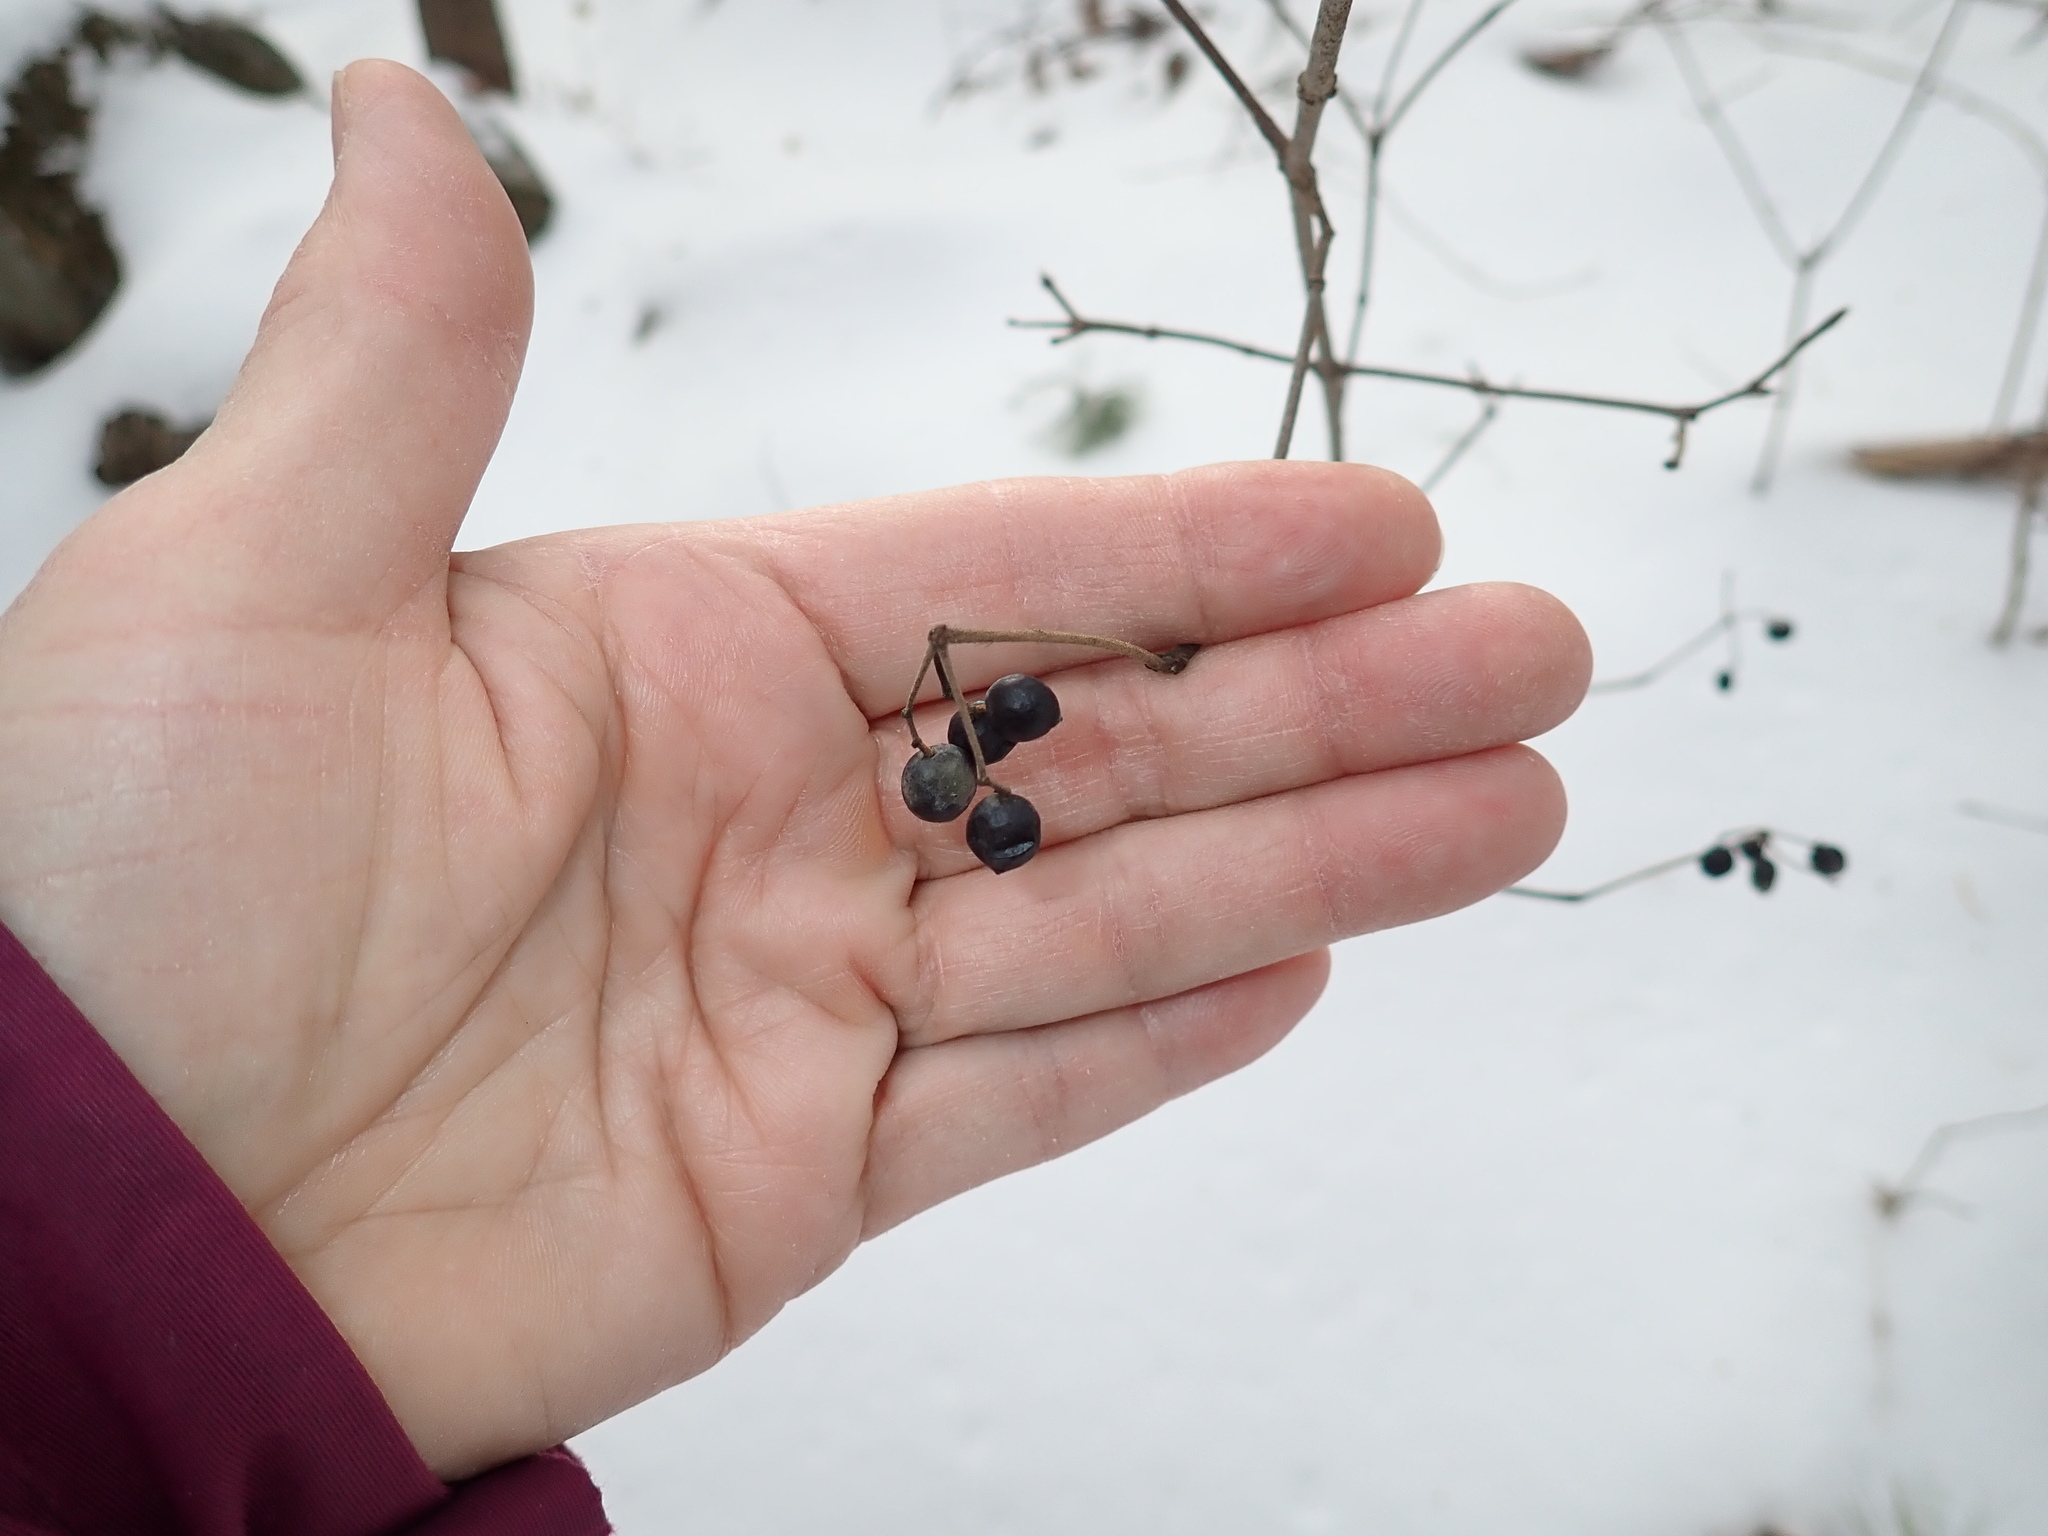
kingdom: Plantae
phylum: Tracheophyta
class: Magnoliopsida
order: Dipsacales
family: Viburnaceae
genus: Viburnum
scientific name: Viburnum acerifolium
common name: Dockmackie
